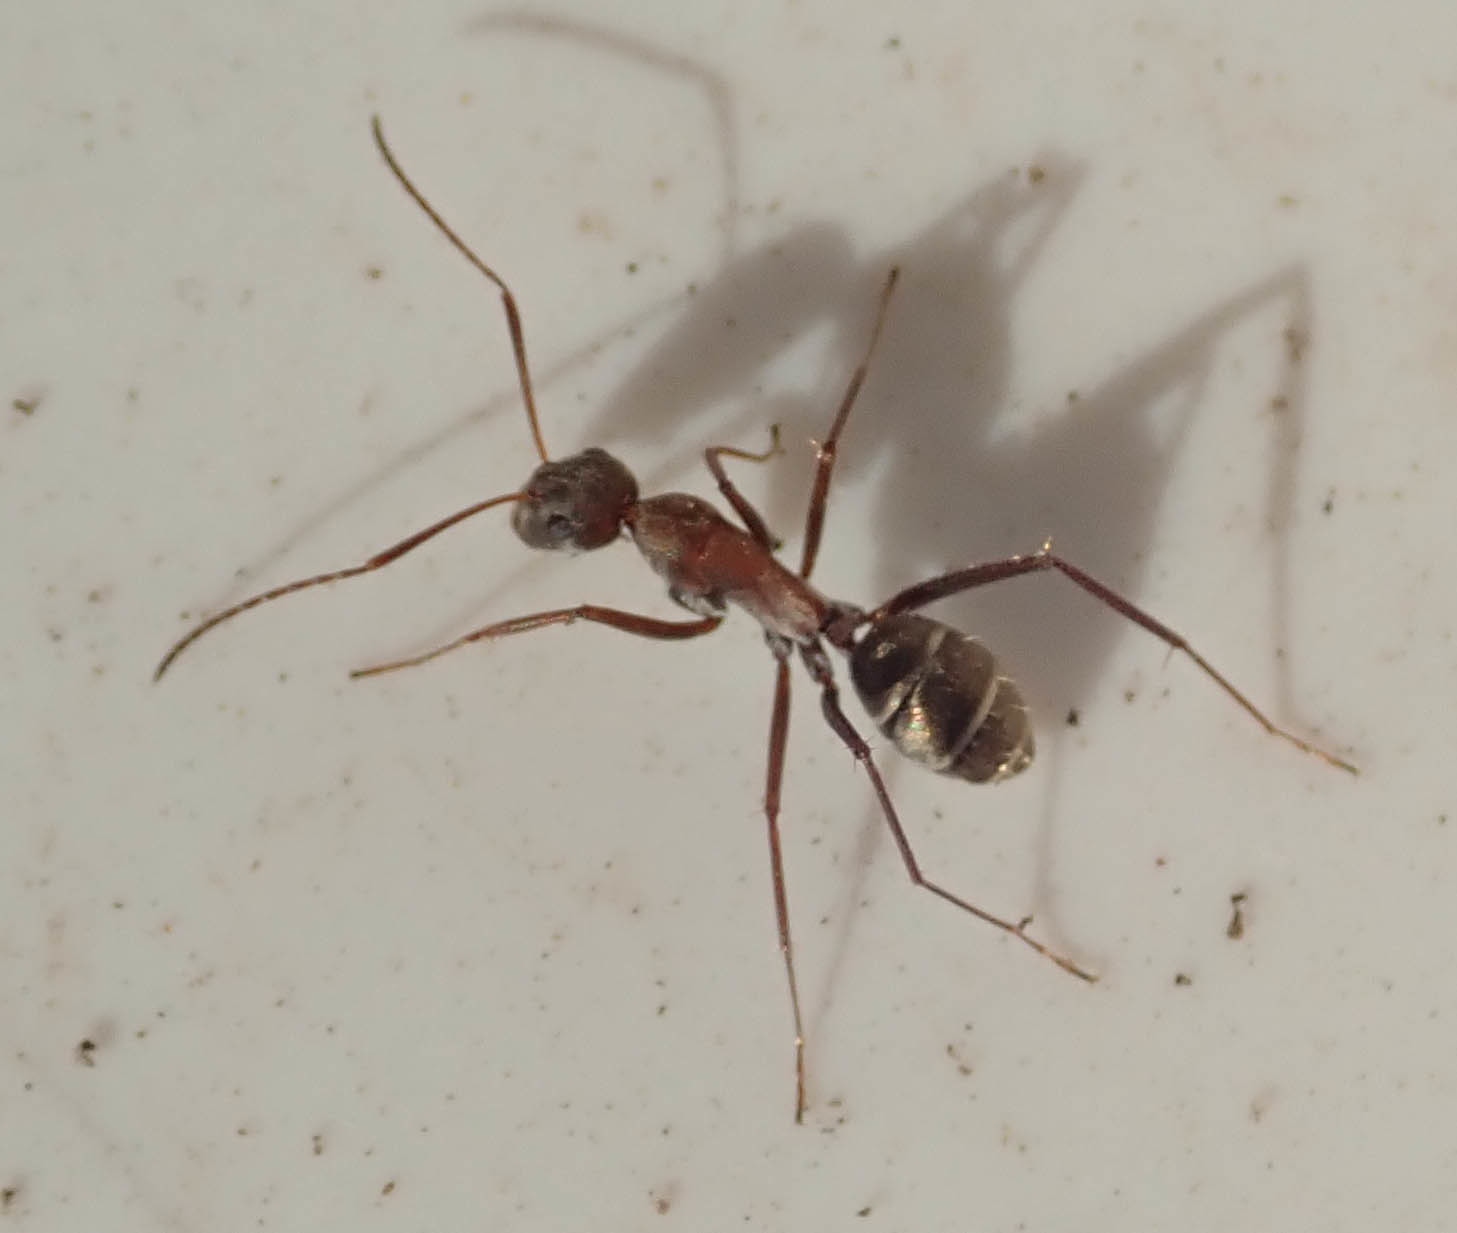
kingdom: Animalia
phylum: Arthropoda
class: Insecta
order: Hymenoptera
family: Formicidae
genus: Camponotus
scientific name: Camponotus vestitus
